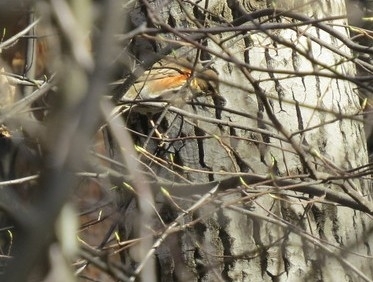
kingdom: Animalia
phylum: Chordata
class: Aves
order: Passeriformes
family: Fringillidae
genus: Fringilla
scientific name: Fringilla montifringilla
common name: Brambling
